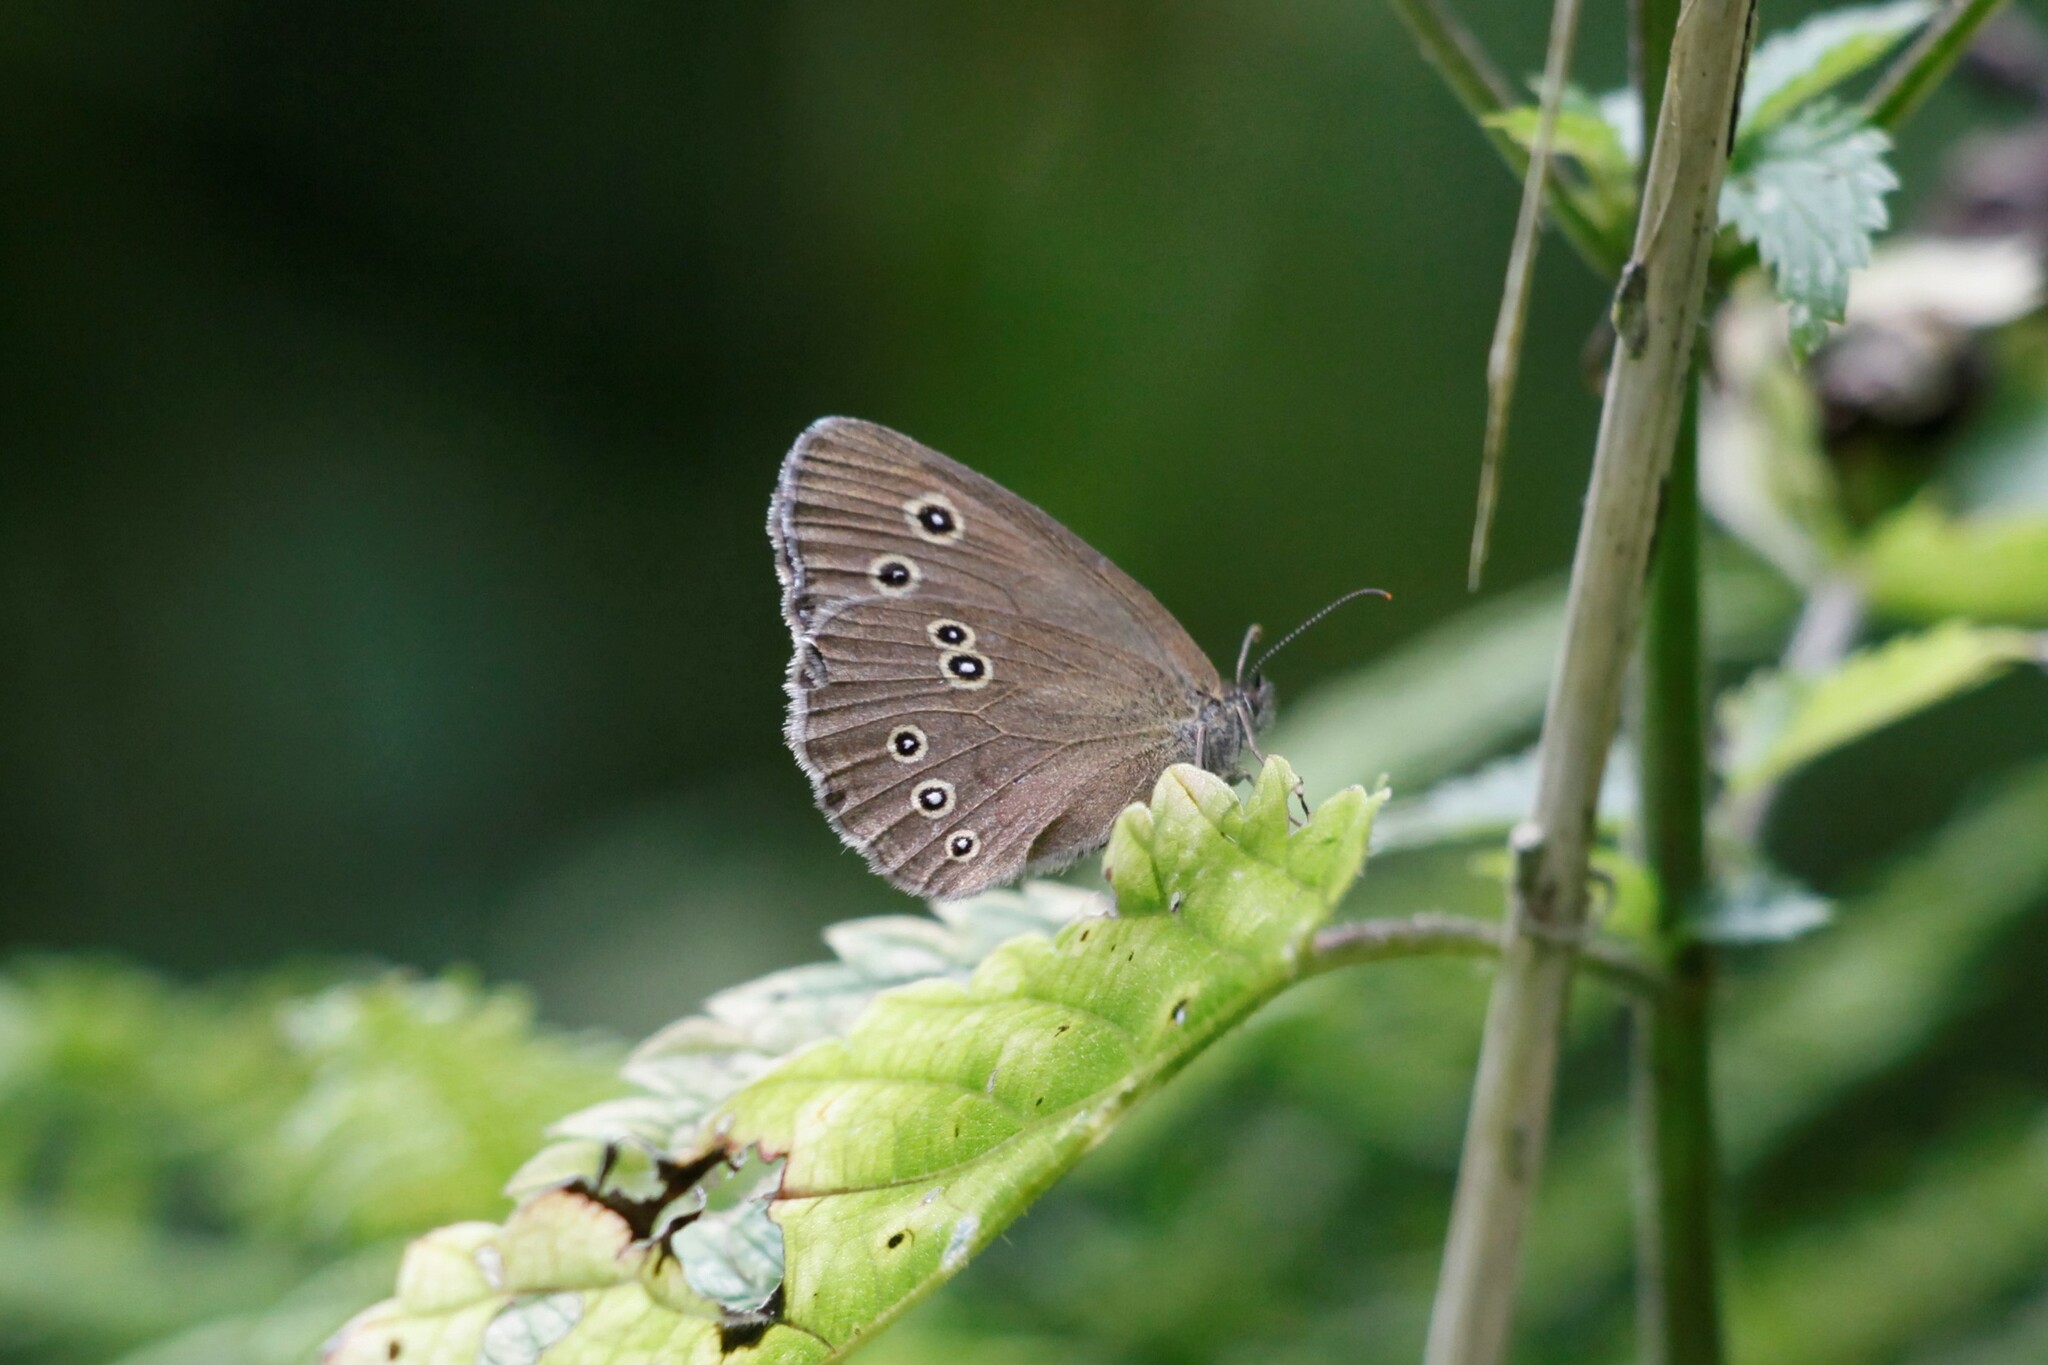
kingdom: Animalia
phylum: Arthropoda
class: Insecta
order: Lepidoptera
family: Nymphalidae
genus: Aphantopus
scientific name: Aphantopus hyperantus
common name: Ringlet
